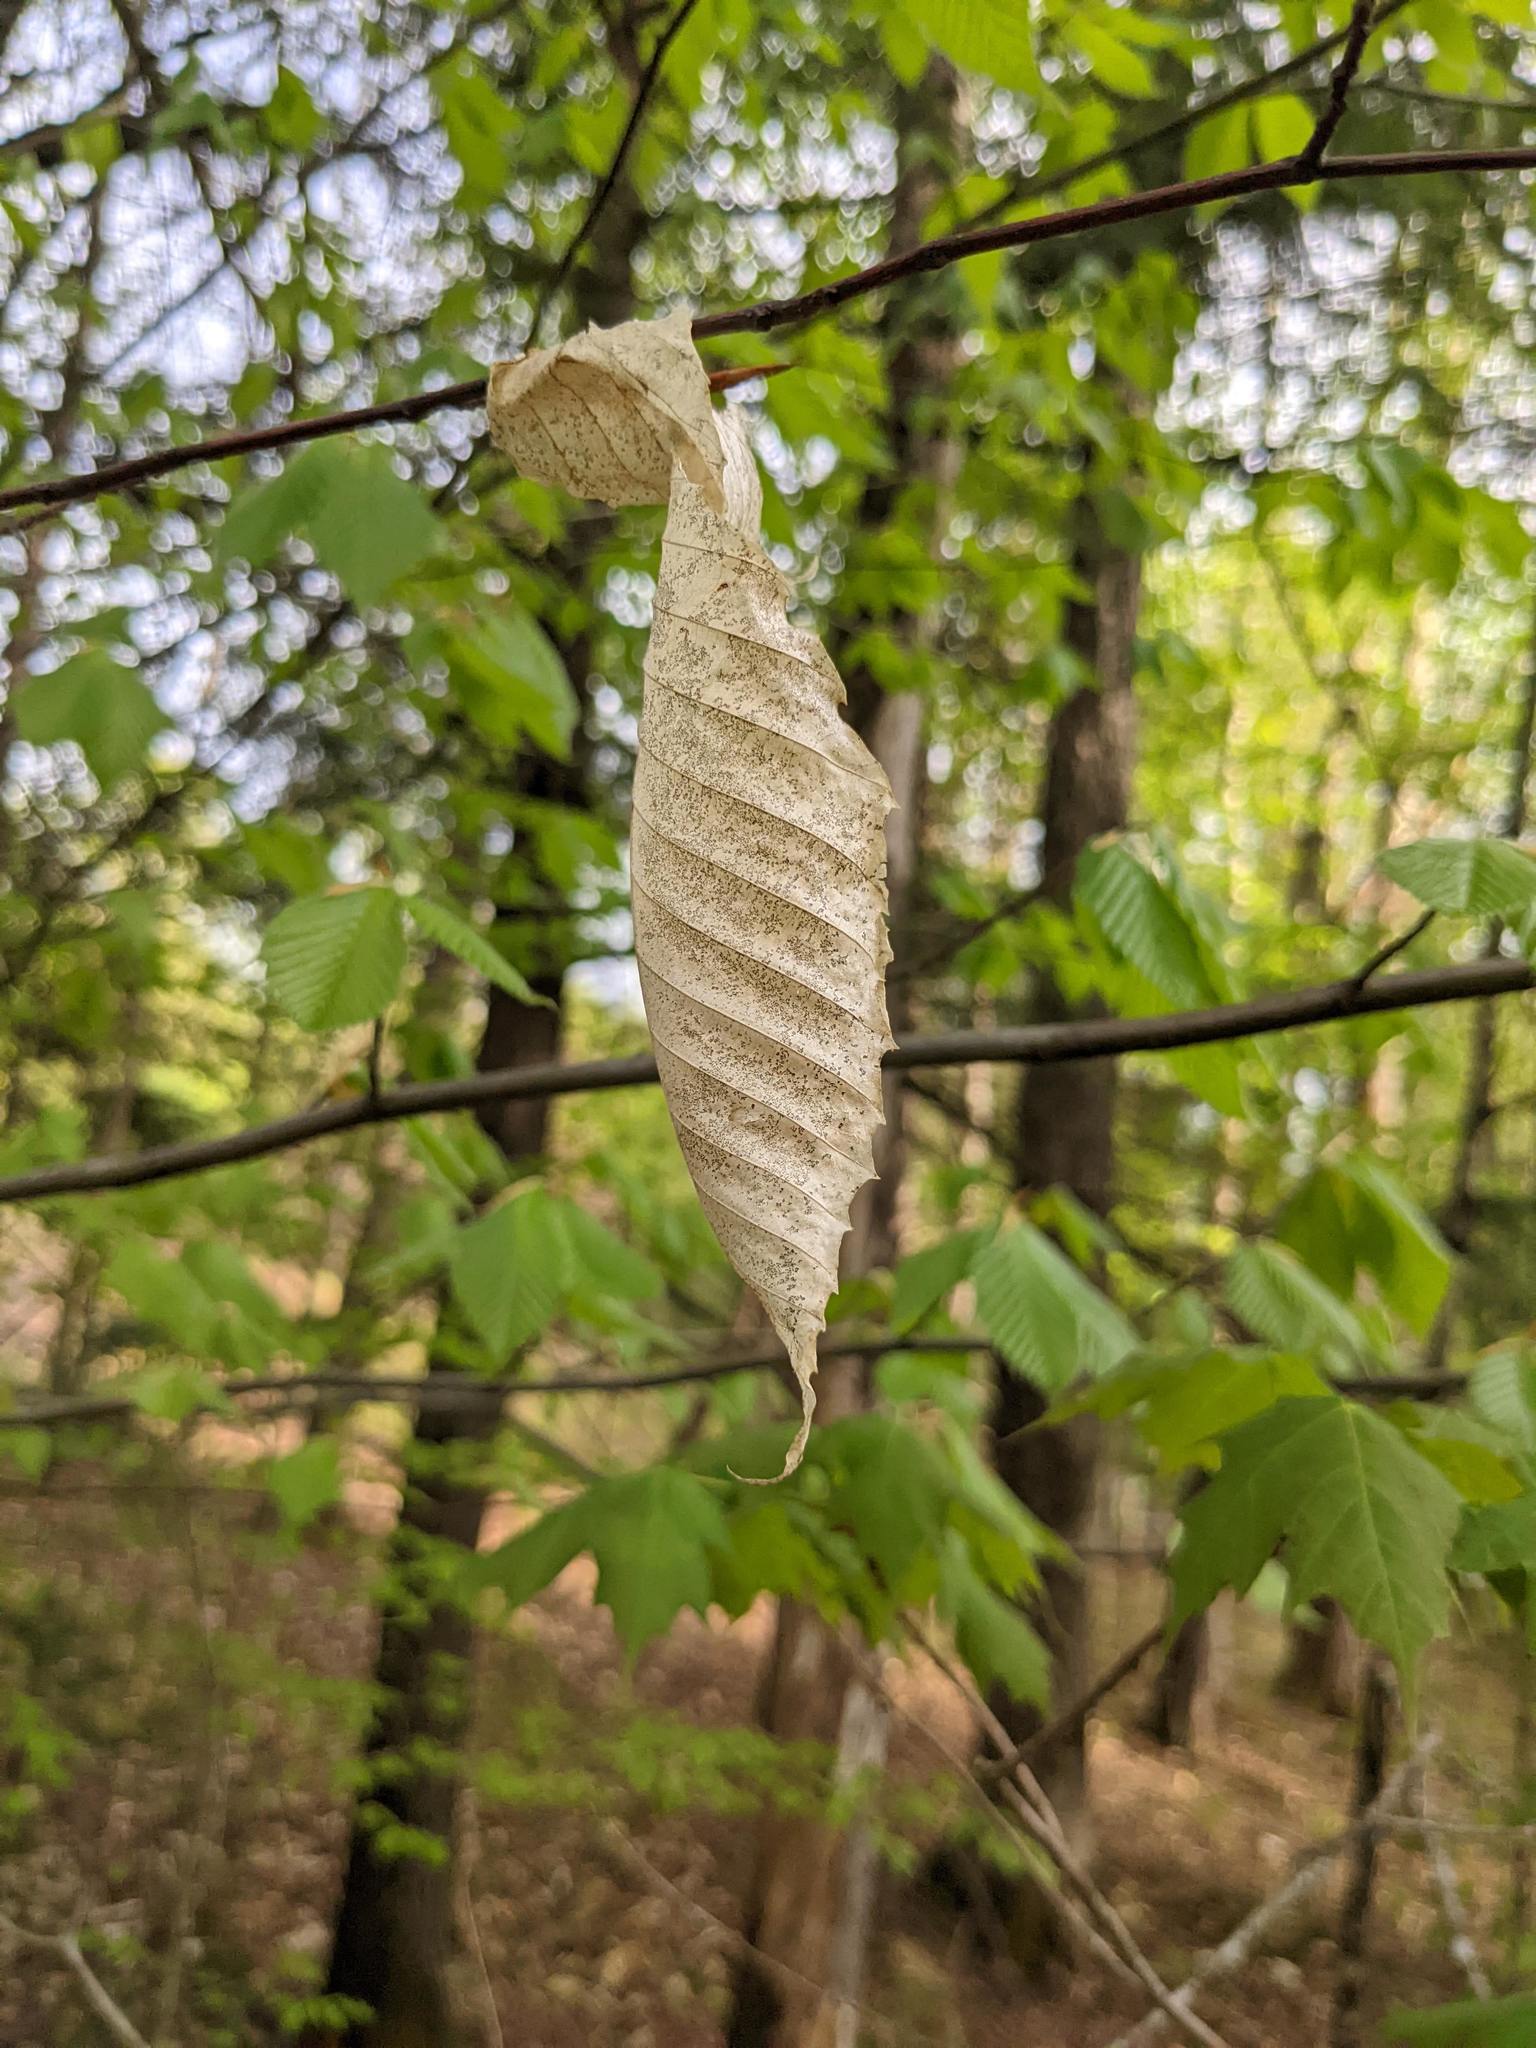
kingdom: Plantae
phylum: Tracheophyta
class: Magnoliopsida
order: Fagales
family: Fagaceae
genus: Fagus
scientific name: Fagus grandifolia
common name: American beech
